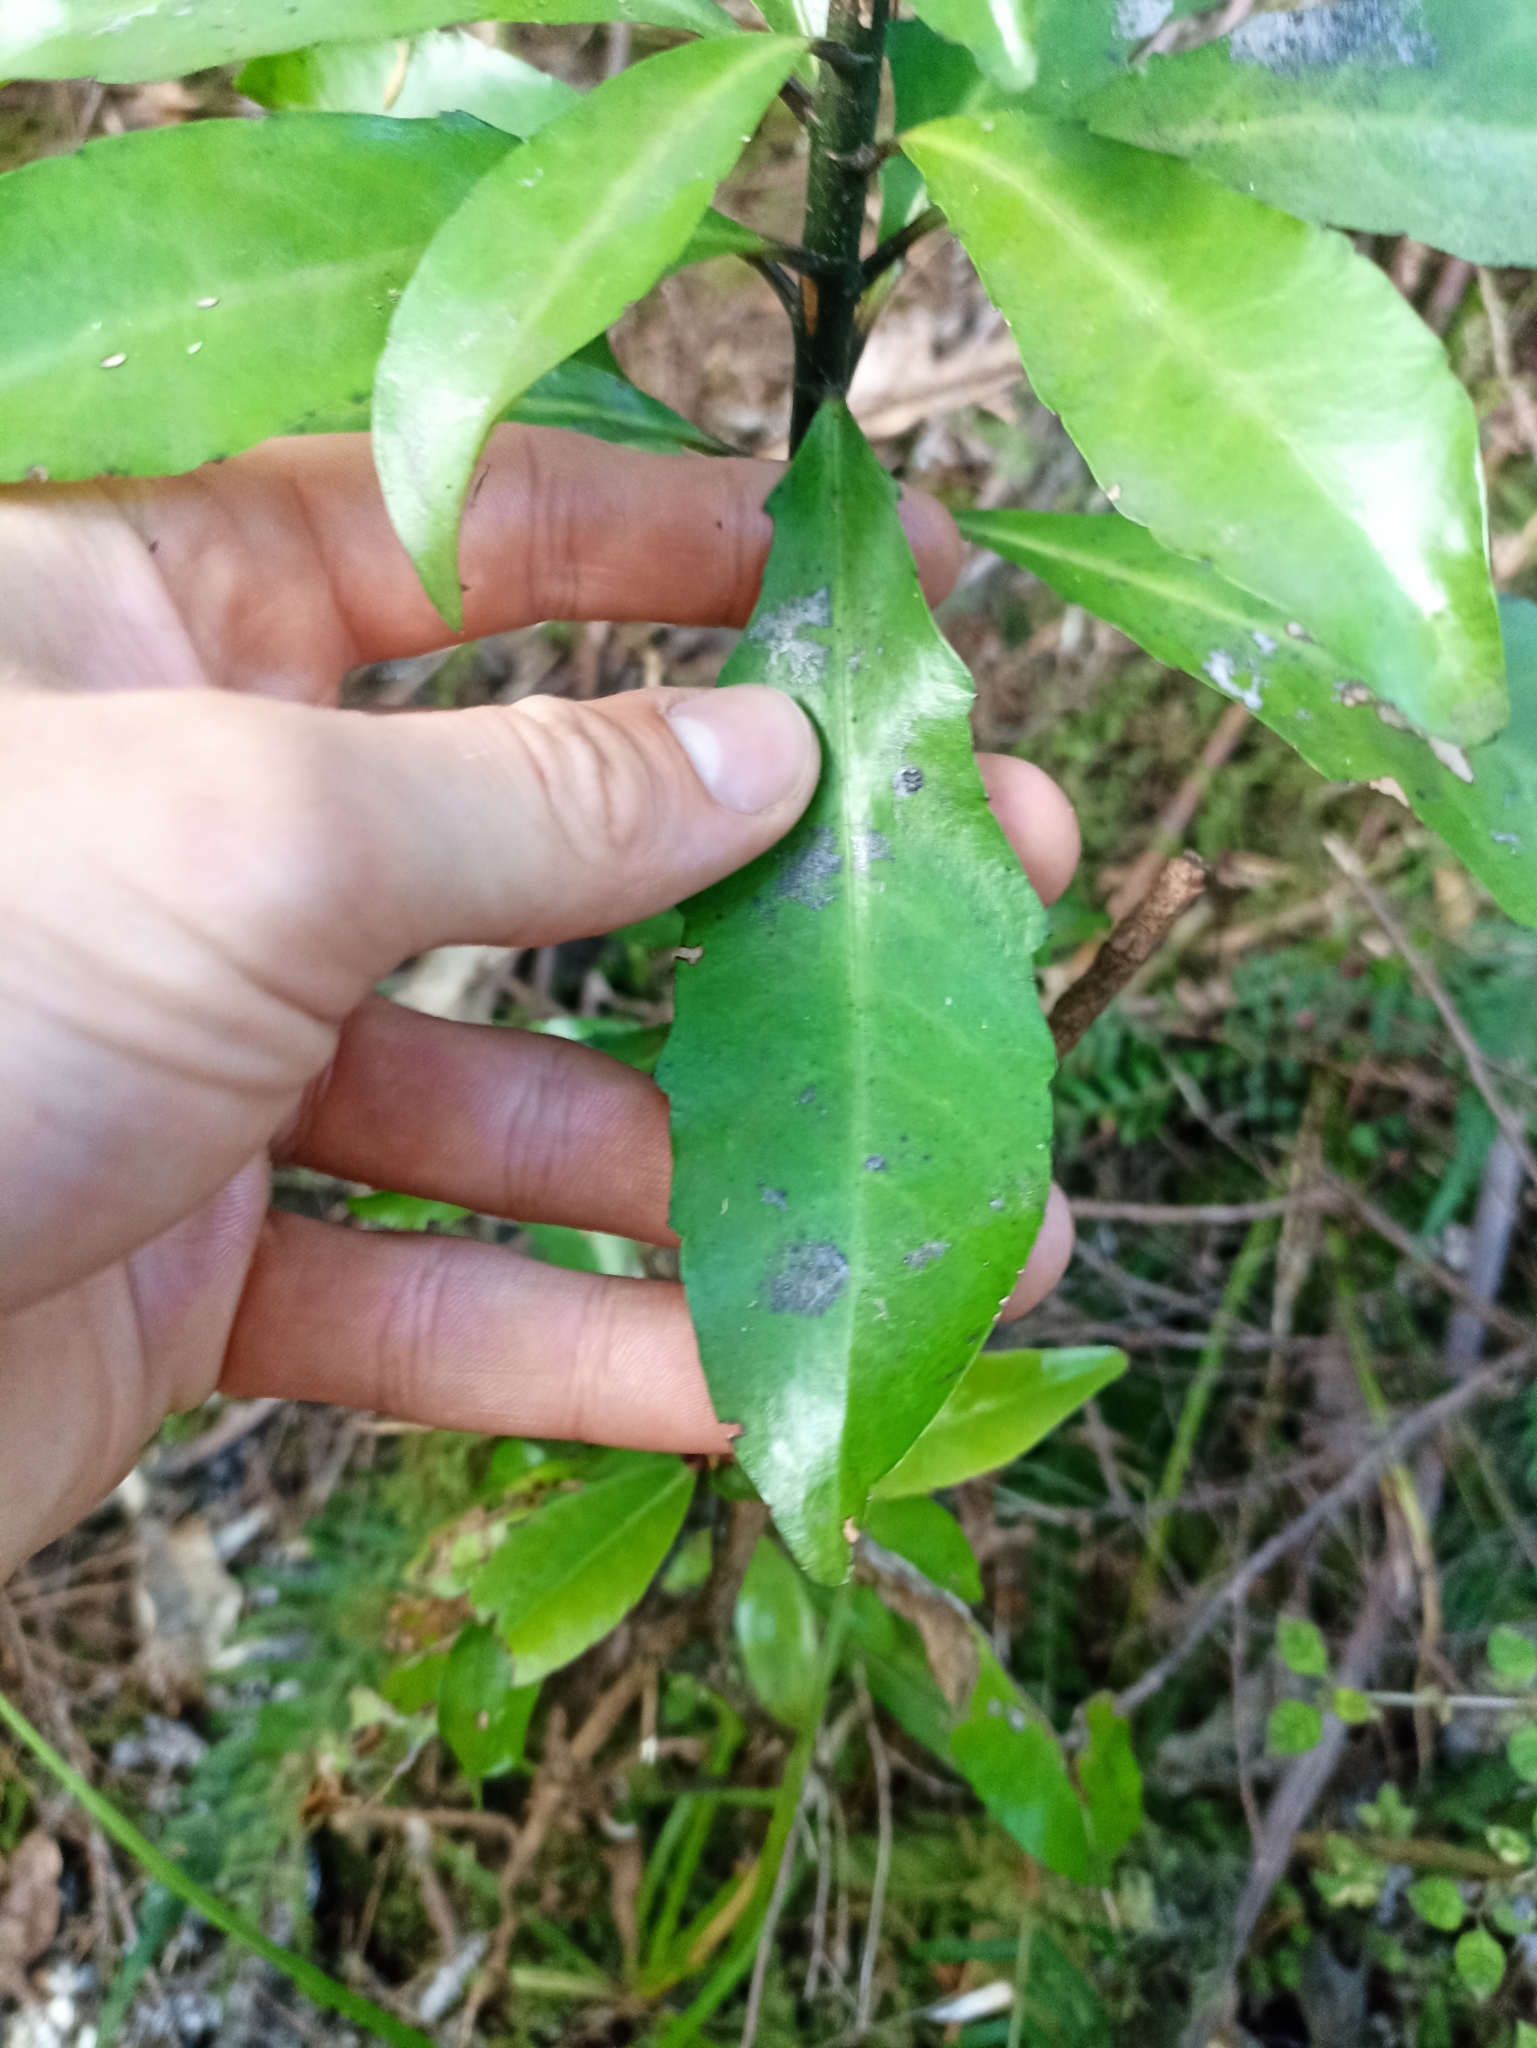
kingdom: Plantae
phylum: Tracheophyta
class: Magnoliopsida
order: Asterales
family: Alseuosmiaceae
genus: Alseuosmia
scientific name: Alseuosmia quercifolia
